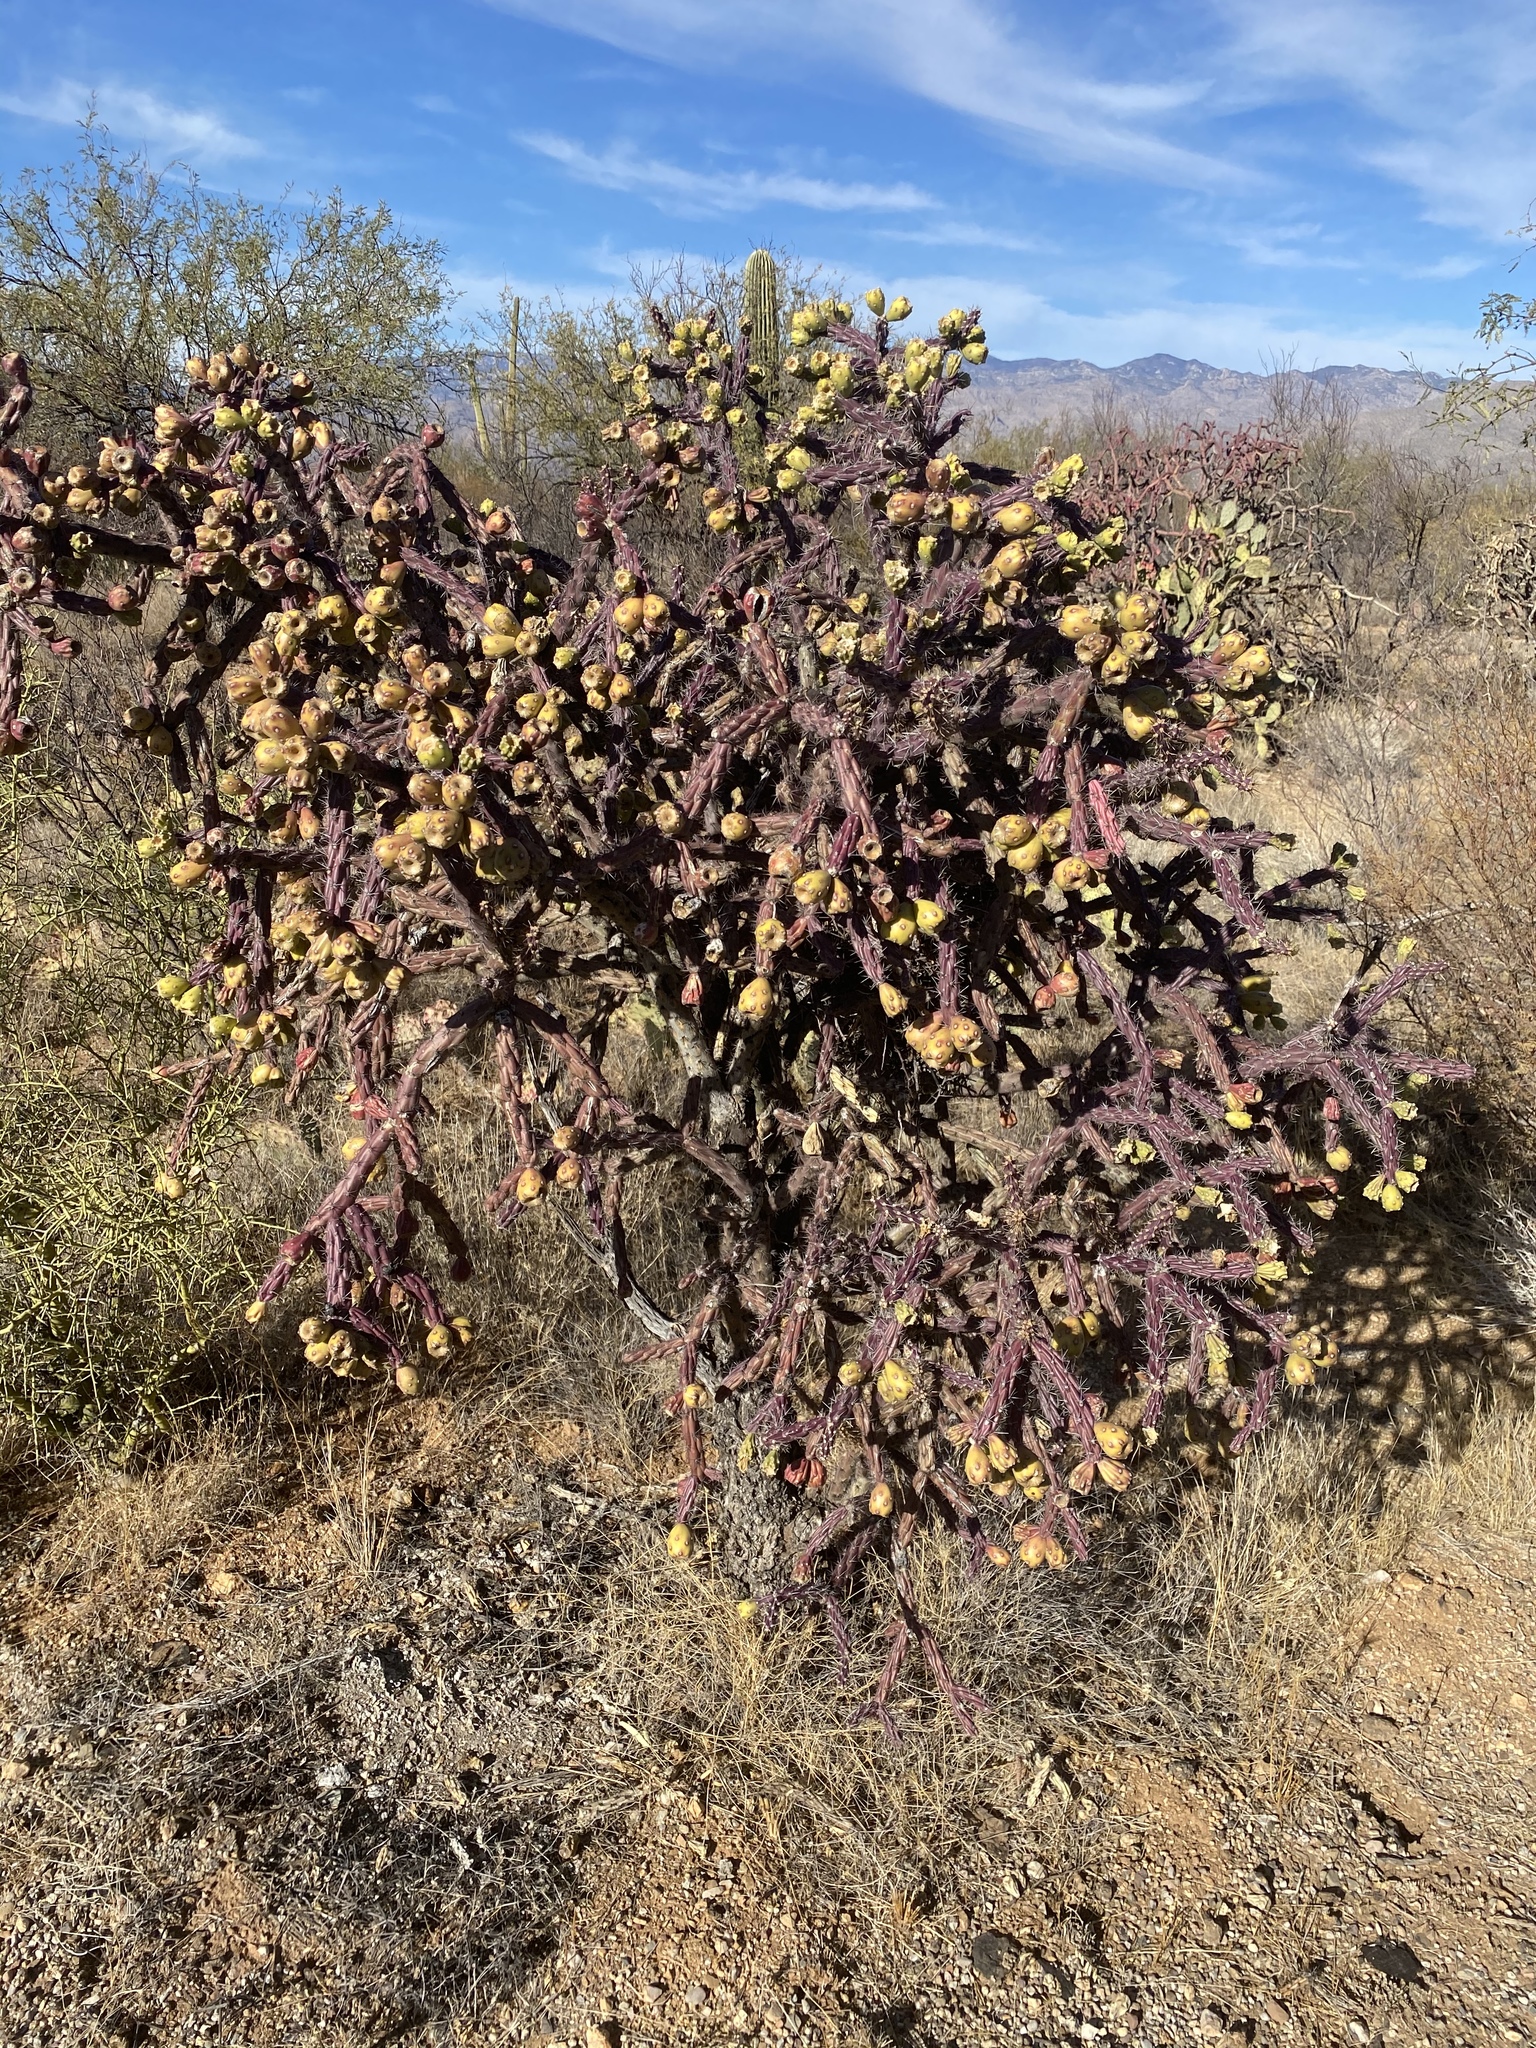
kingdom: Plantae
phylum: Tracheophyta
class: Magnoliopsida
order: Caryophyllales
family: Cactaceae
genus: Cylindropuntia
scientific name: Cylindropuntia thurberi
